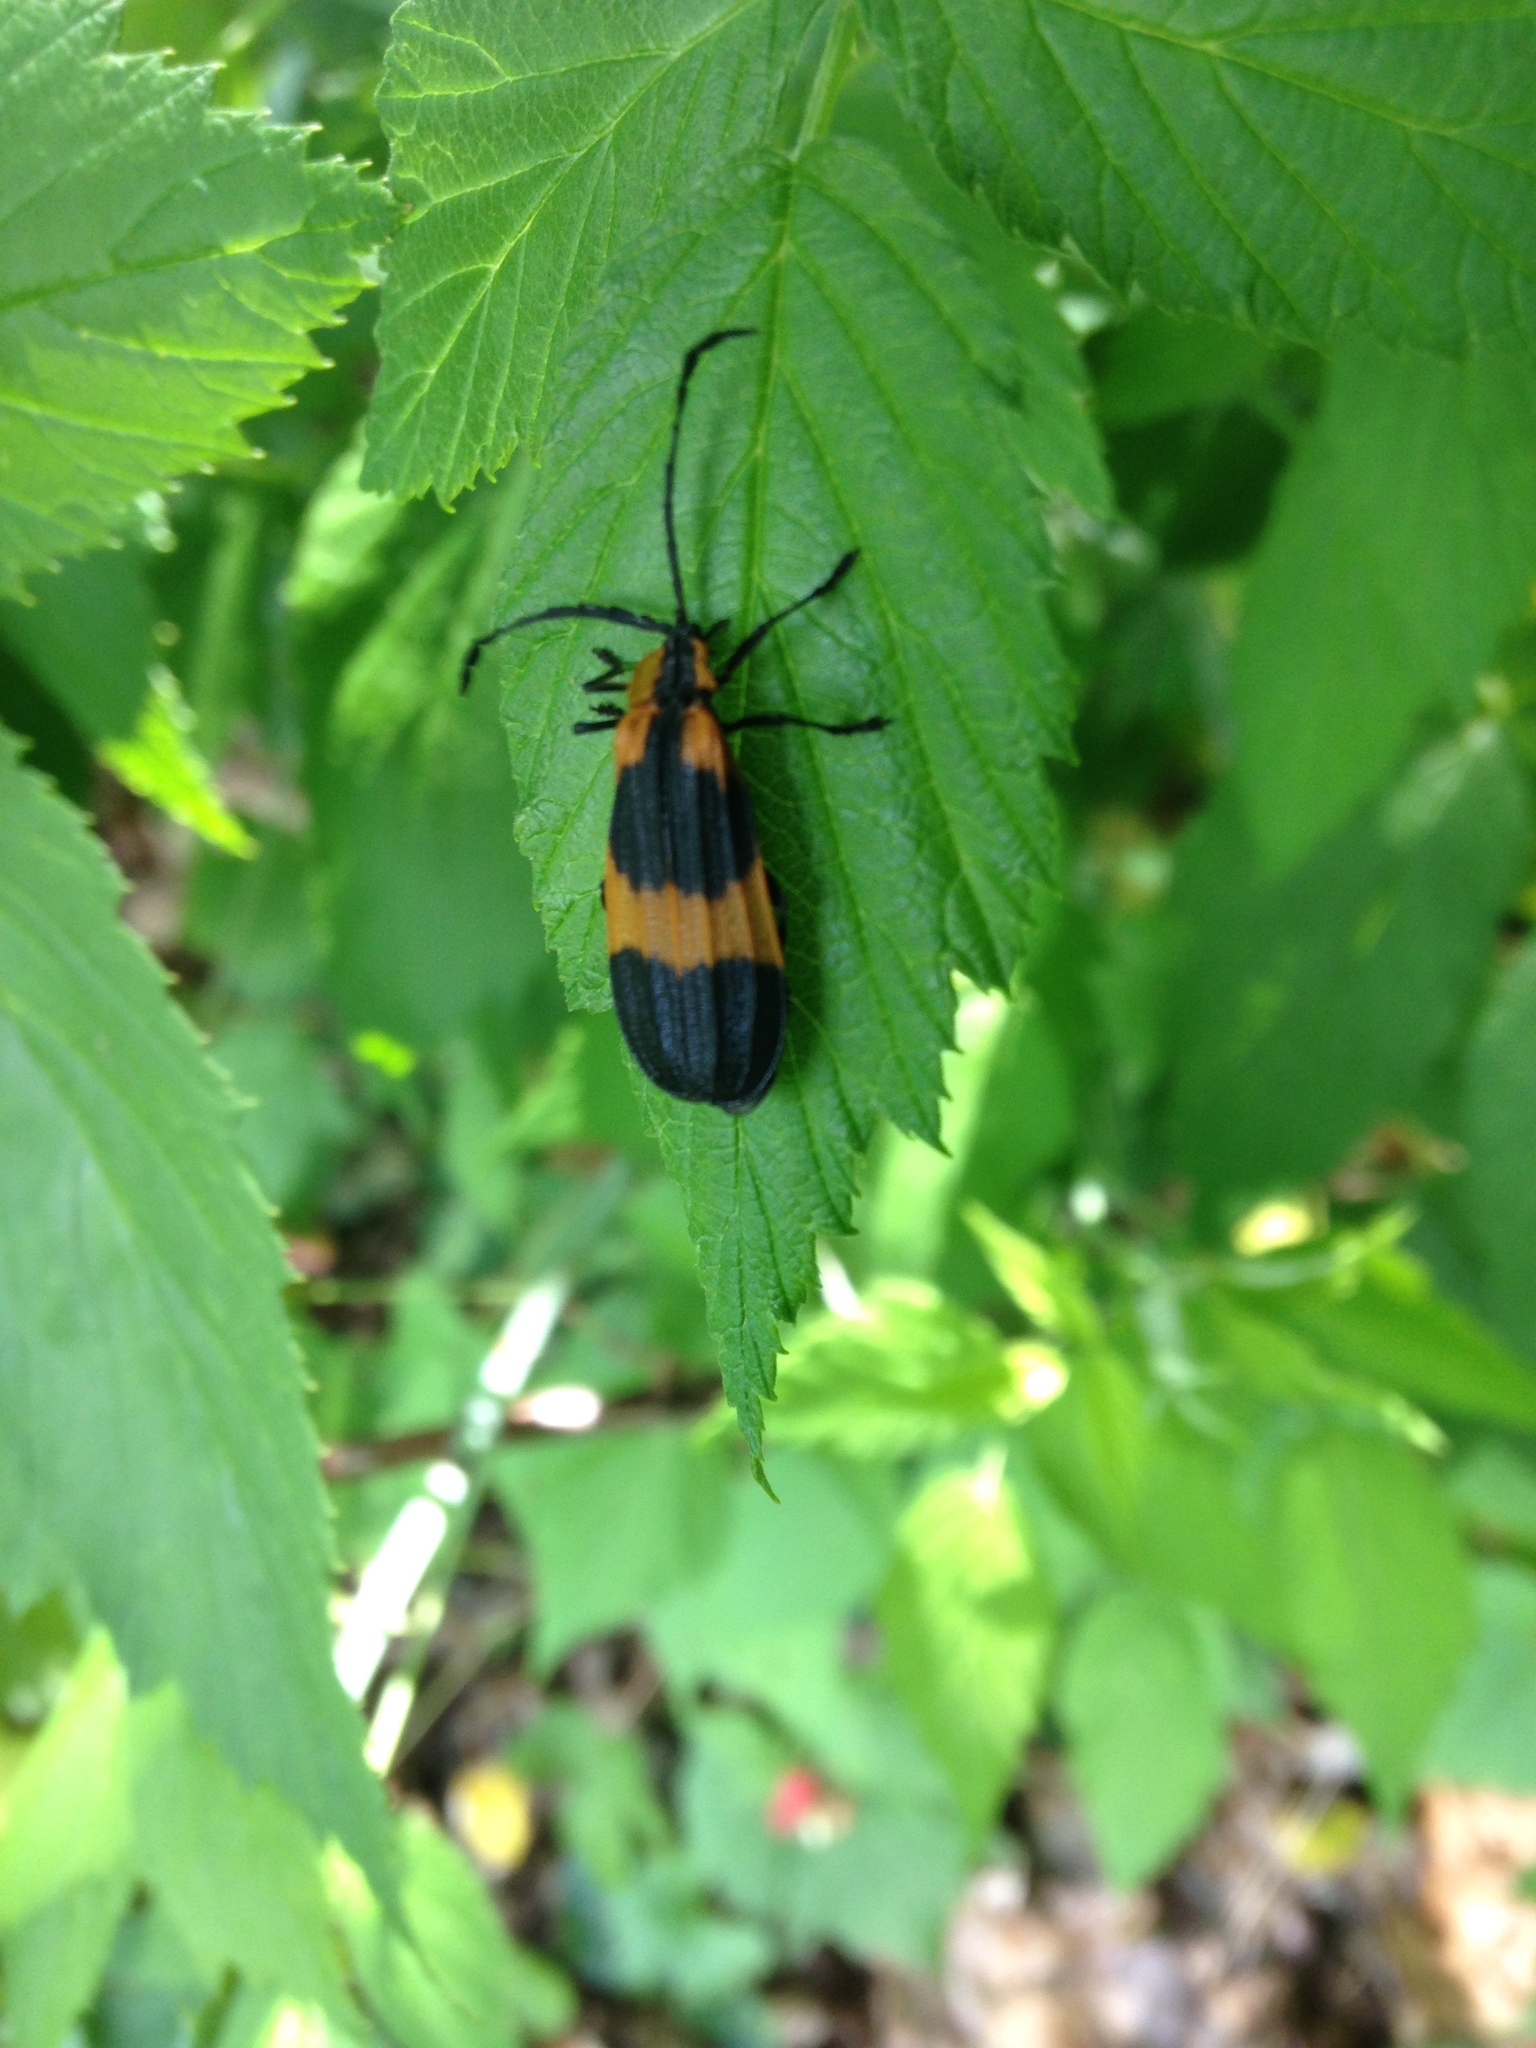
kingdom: Animalia
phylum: Arthropoda
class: Insecta
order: Coleoptera
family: Lycidae
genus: Calopteron
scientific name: Calopteron reticulatum
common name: Banded net-winged beetle
